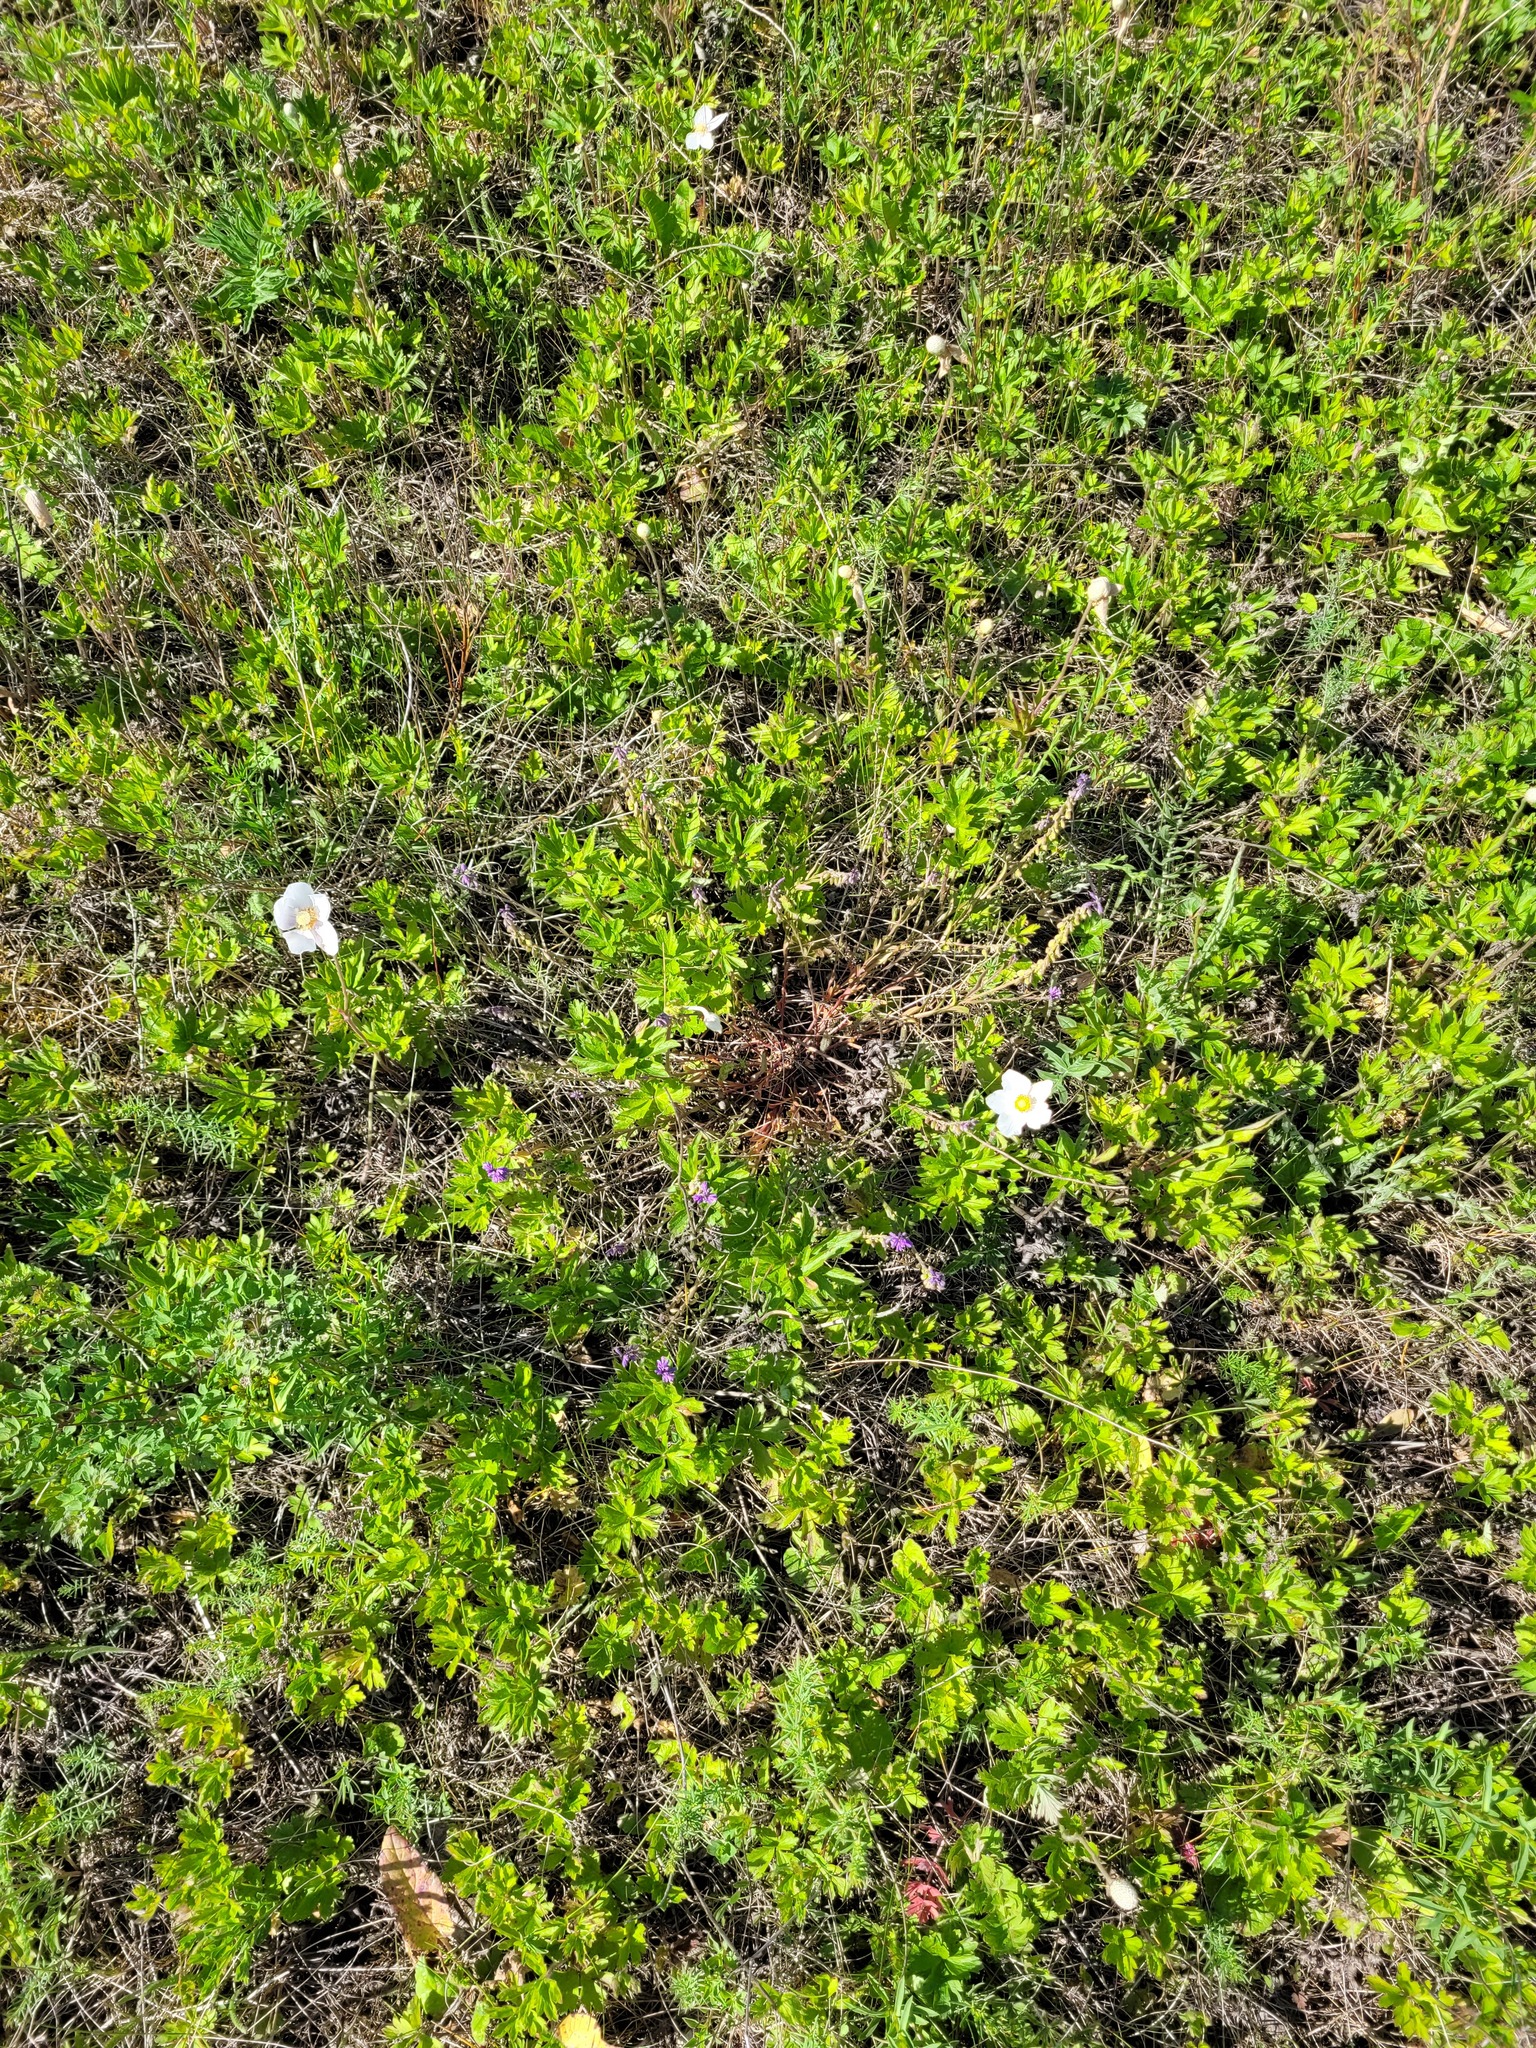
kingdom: Plantae
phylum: Tracheophyta
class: Magnoliopsida
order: Ranunculales
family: Ranunculaceae
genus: Anemone
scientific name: Anemone sylvestris
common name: Snowdrop anemone
